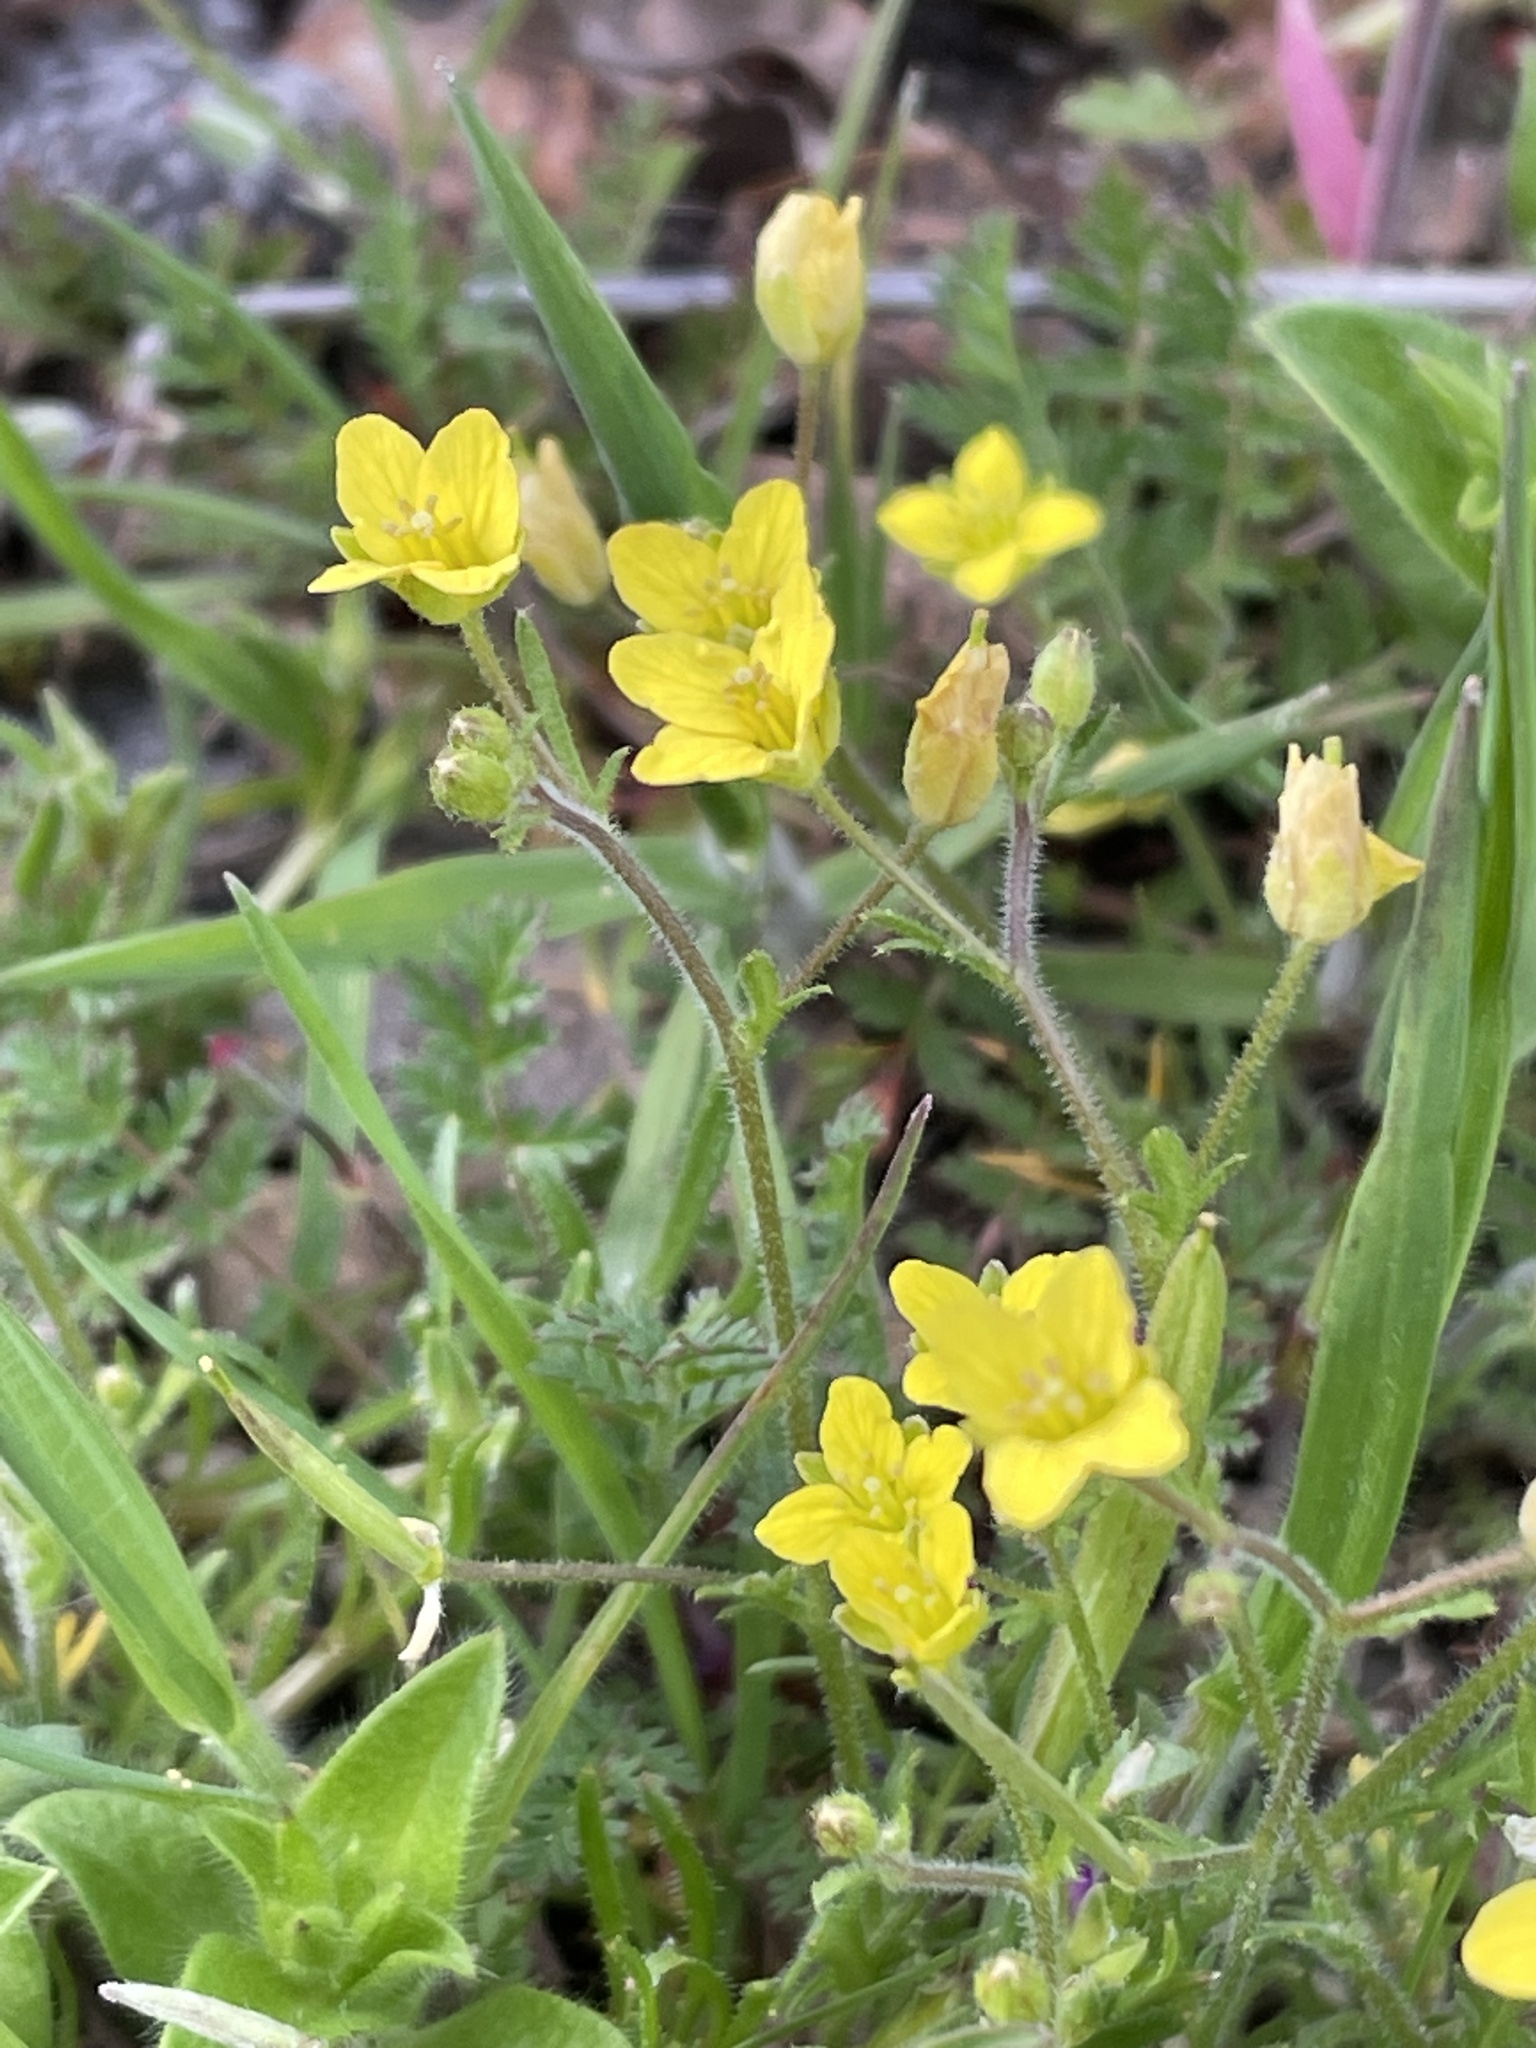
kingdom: Plantae
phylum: Tracheophyta
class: Magnoliopsida
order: Brassicales
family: Brassicaceae
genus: Tropidocarpum
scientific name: Tropidocarpum gracile
